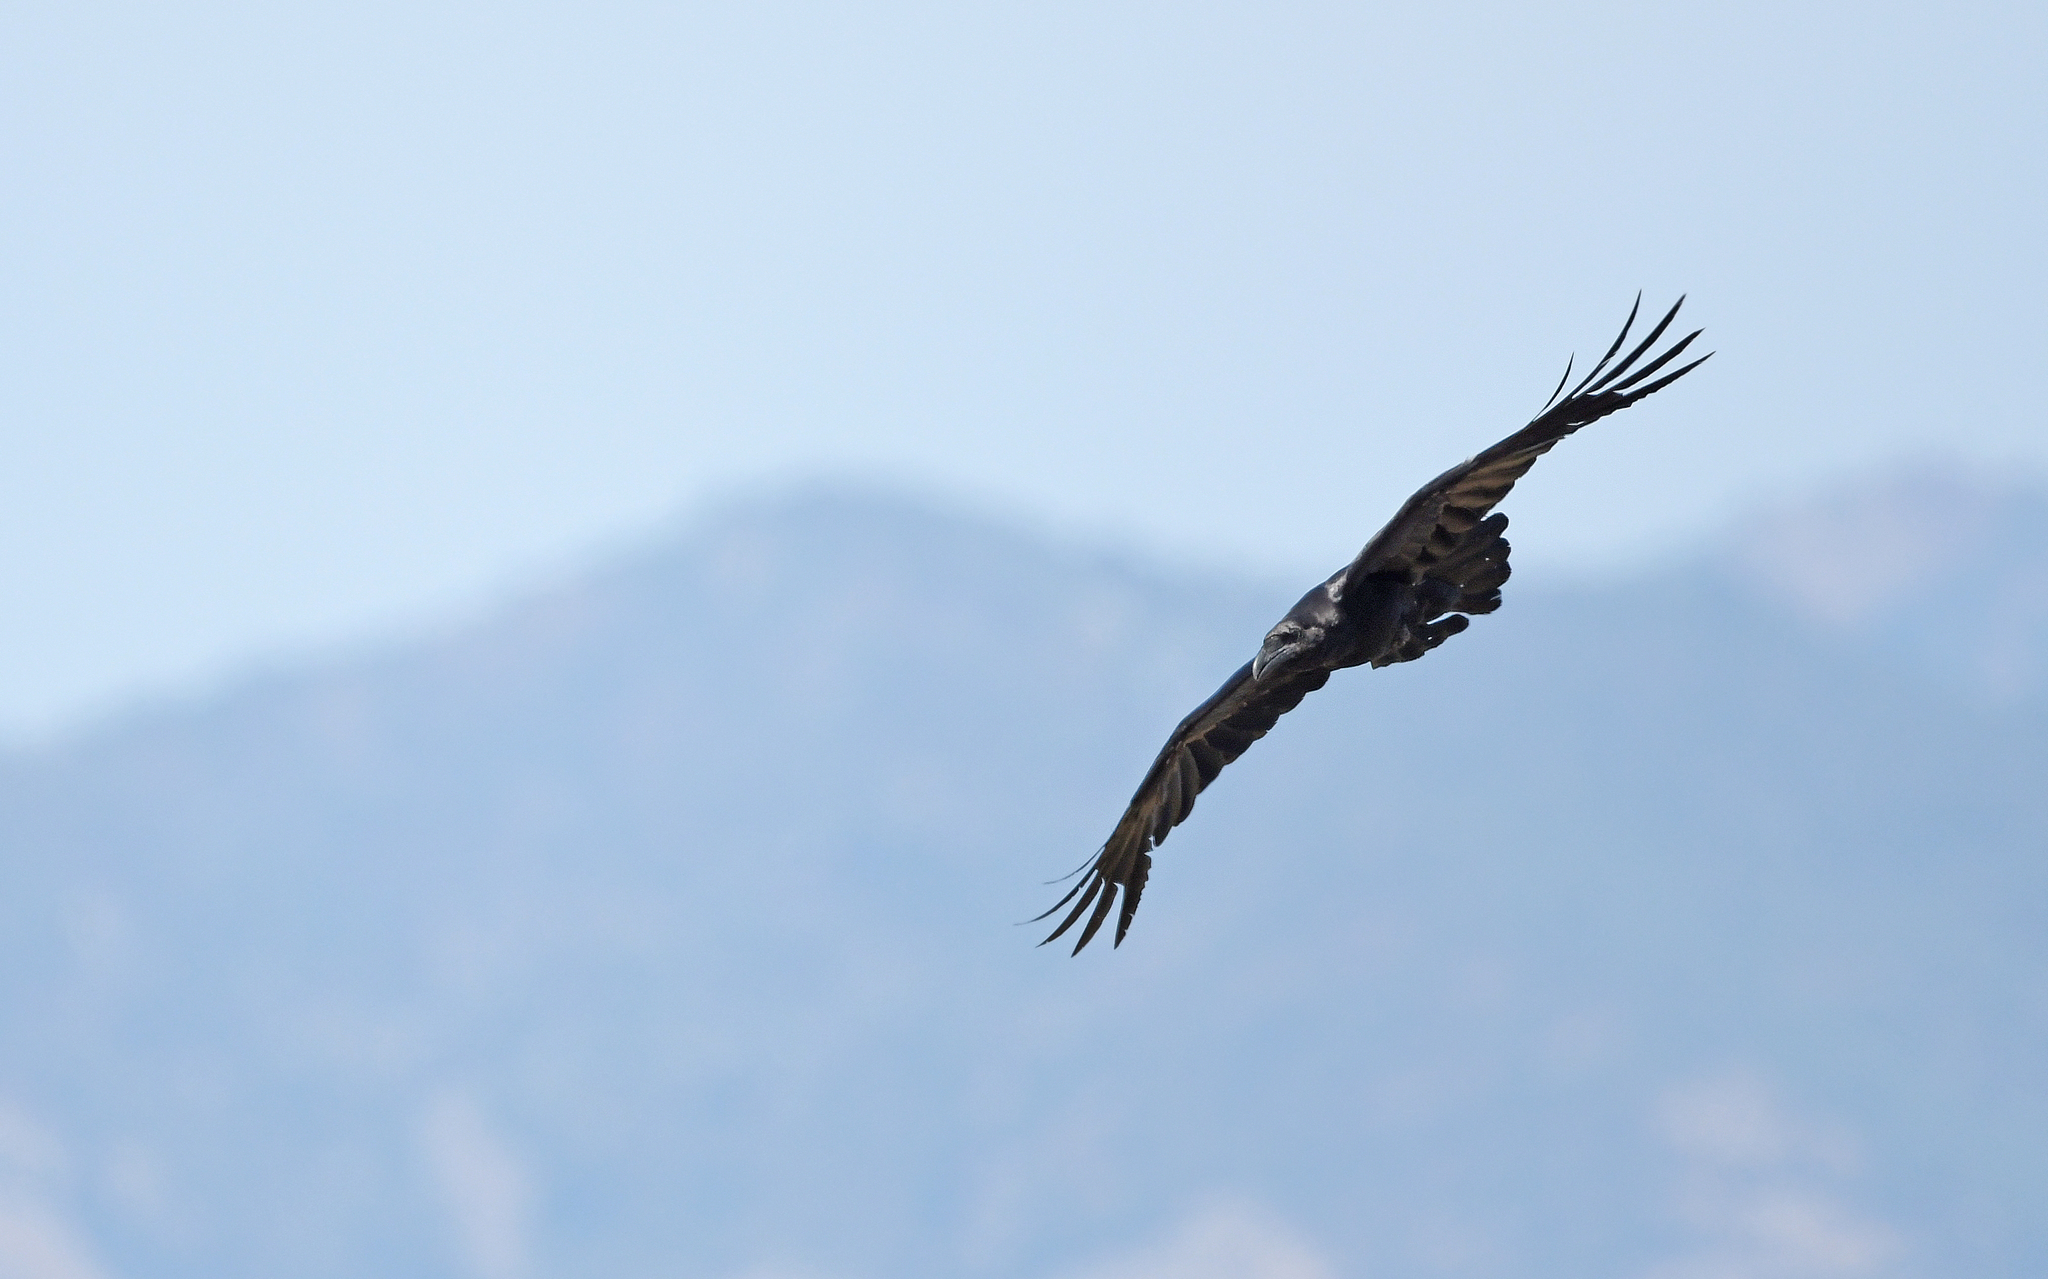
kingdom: Animalia
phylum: Chordata
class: Aves
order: Passeriformes
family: Corvidae
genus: Corvus
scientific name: Corvus corax
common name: Common raven
